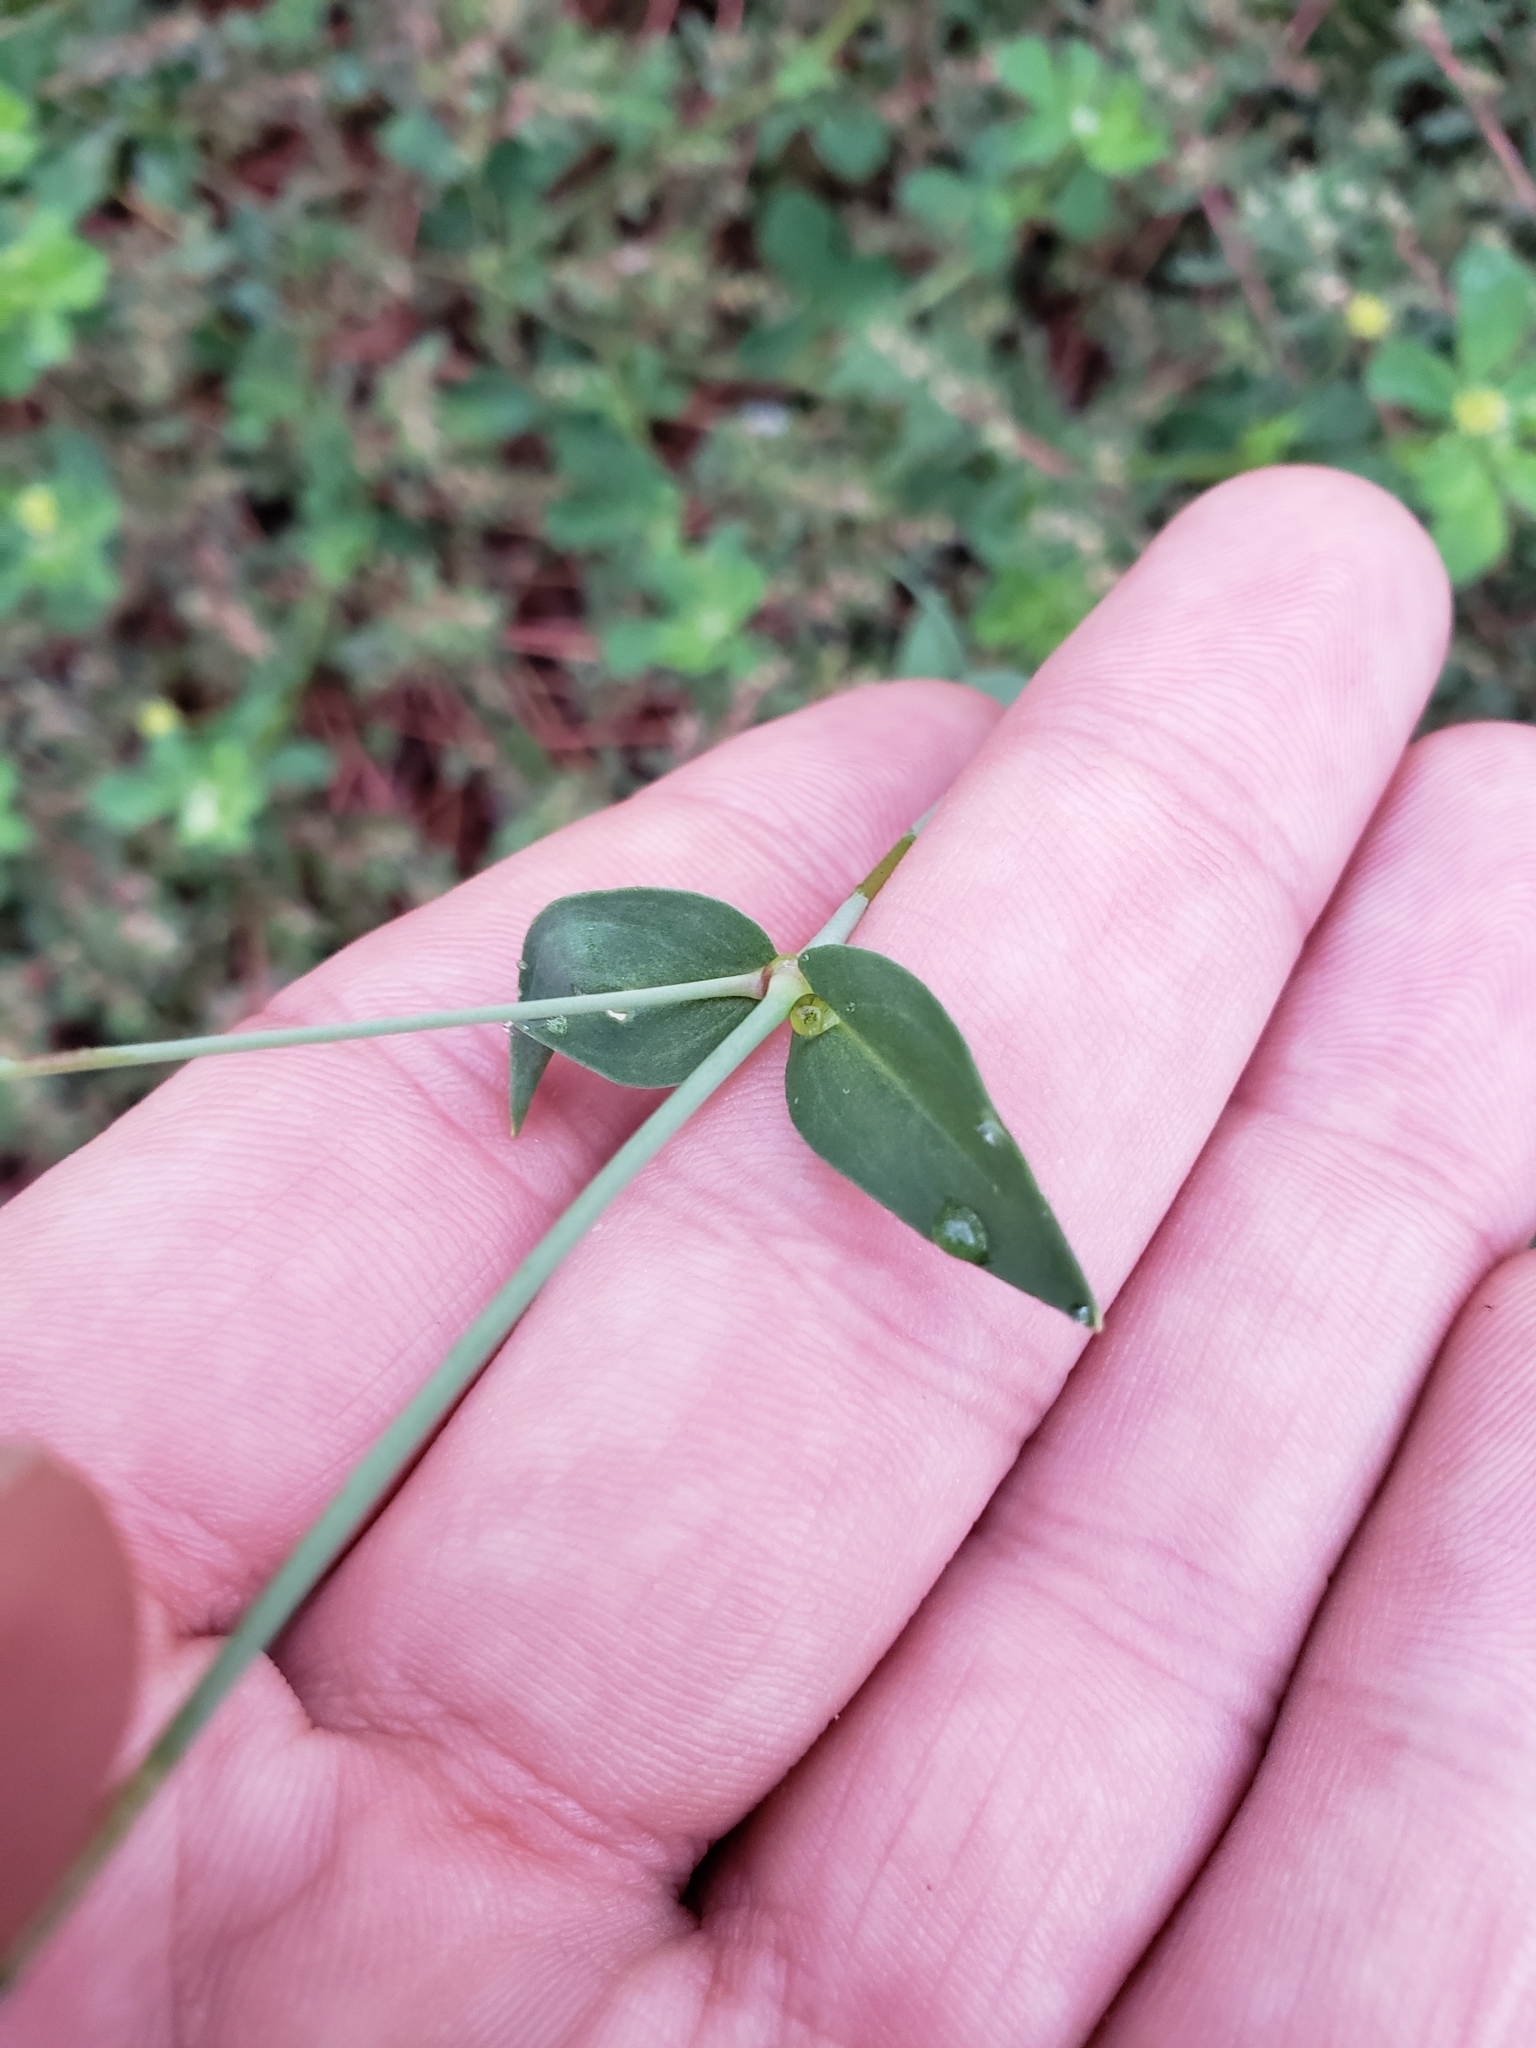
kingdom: Plantae
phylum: Tracheophyta
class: Magnoliopsida
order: Caryophyllales
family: Caryophyllaceae
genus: Atocion
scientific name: Atocion armeria
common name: Sweet william catchfly
